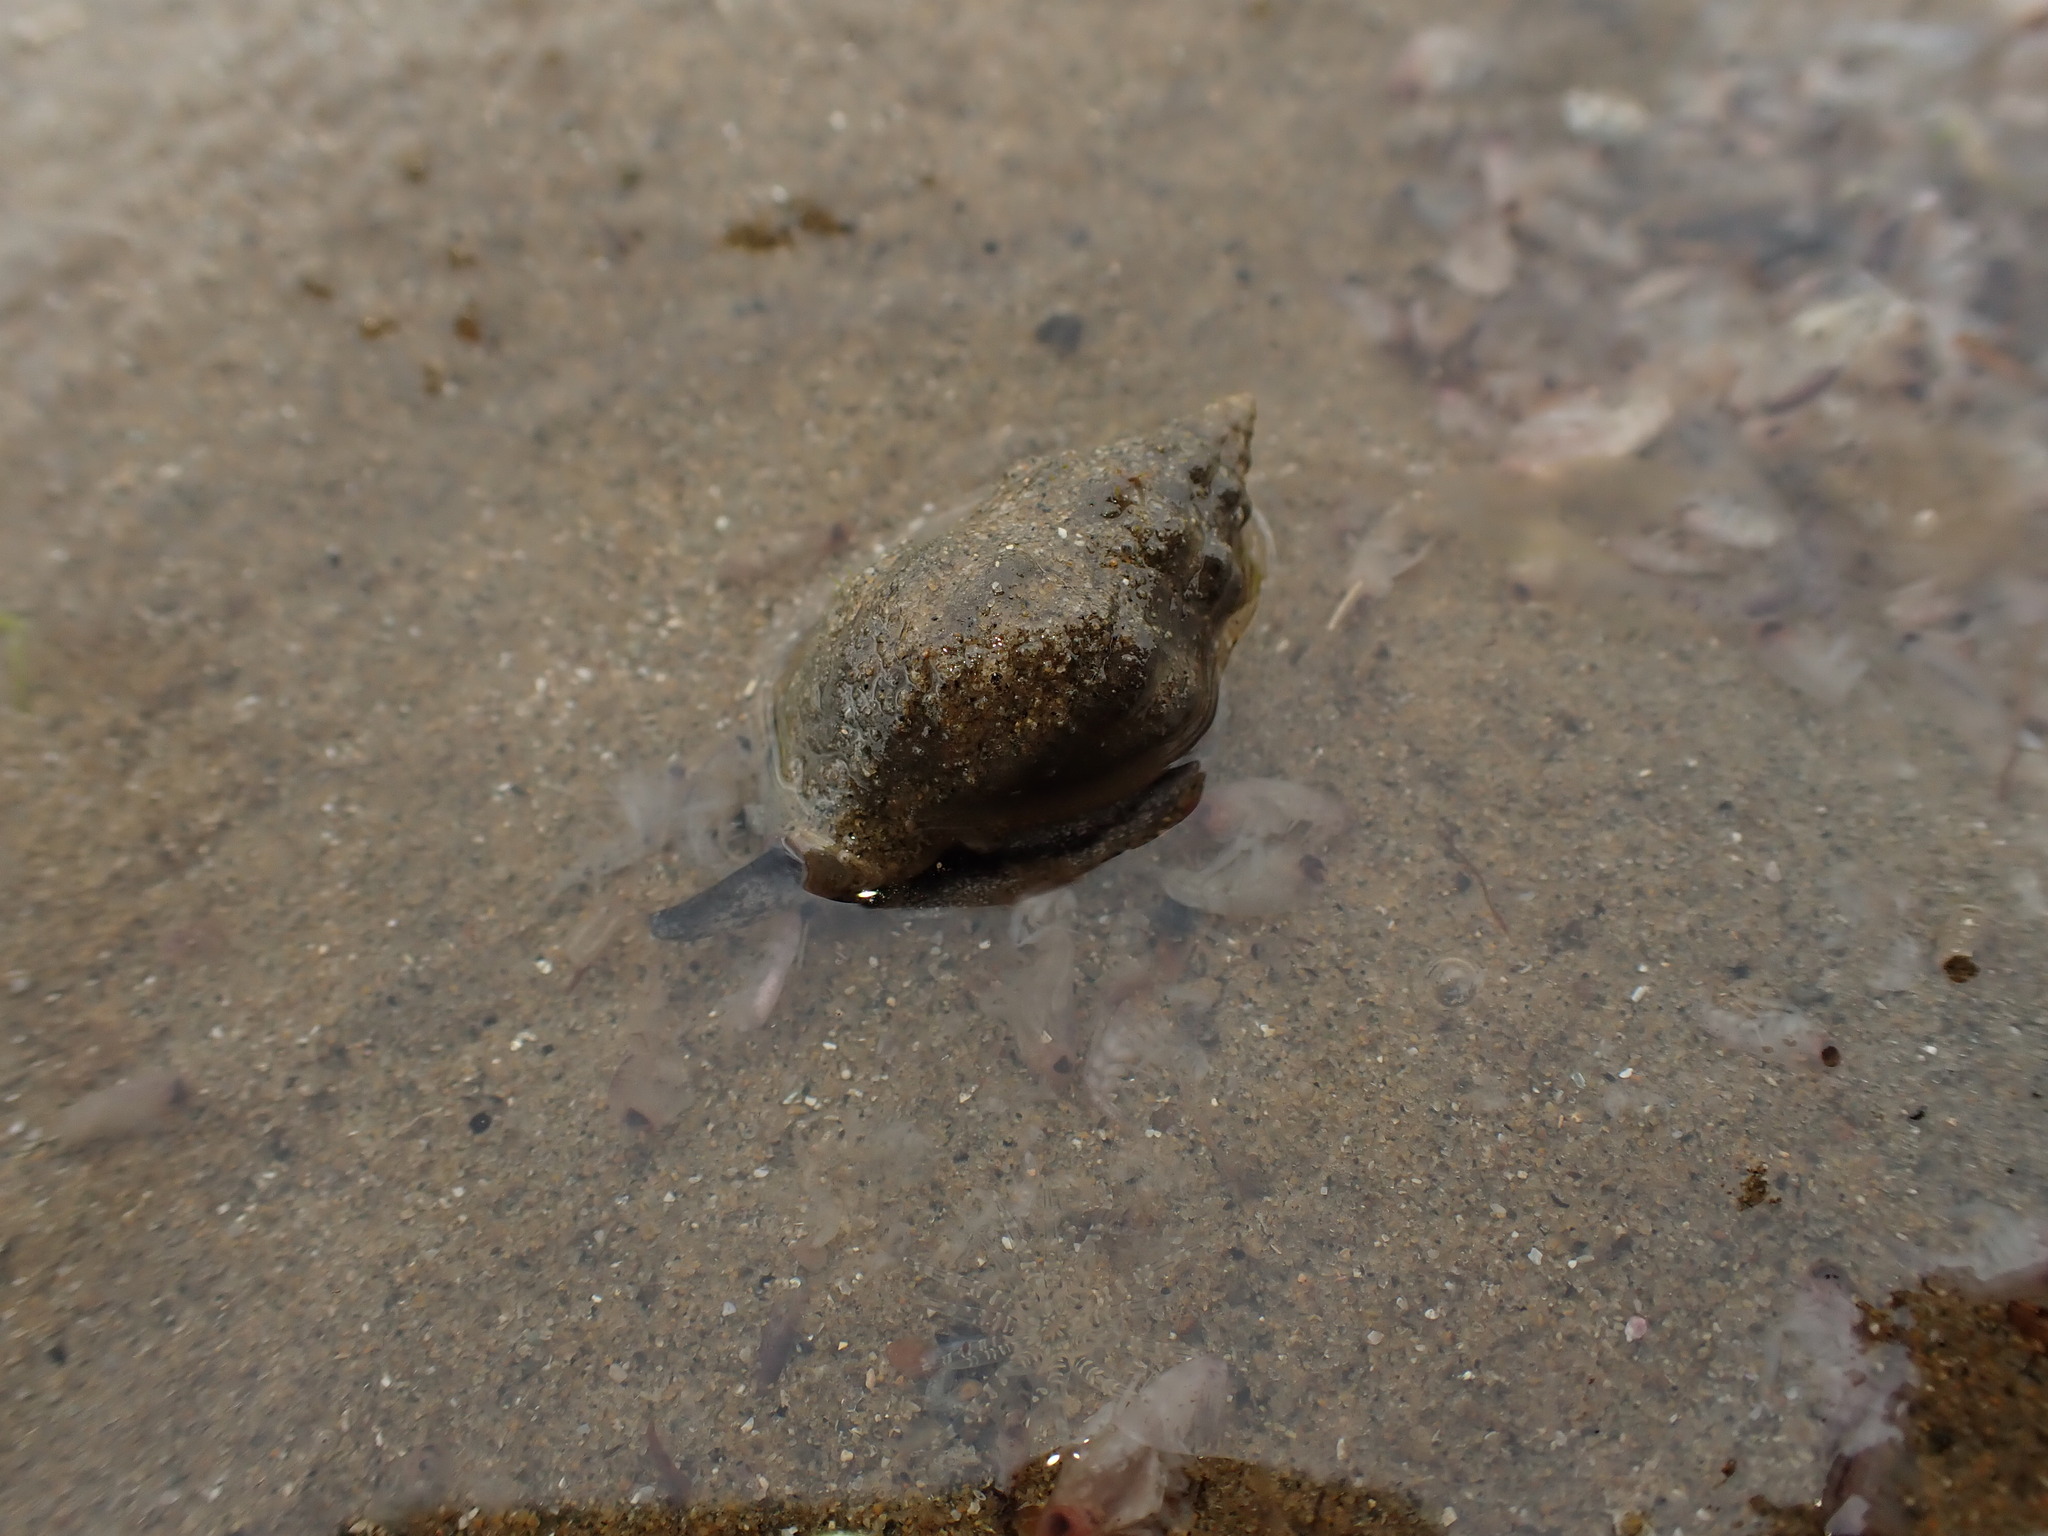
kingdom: Animalia
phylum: Mollusca
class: Gastropoda
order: Neogastropoda
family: Cominellidae
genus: Cominella
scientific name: Cominella glandiformis
